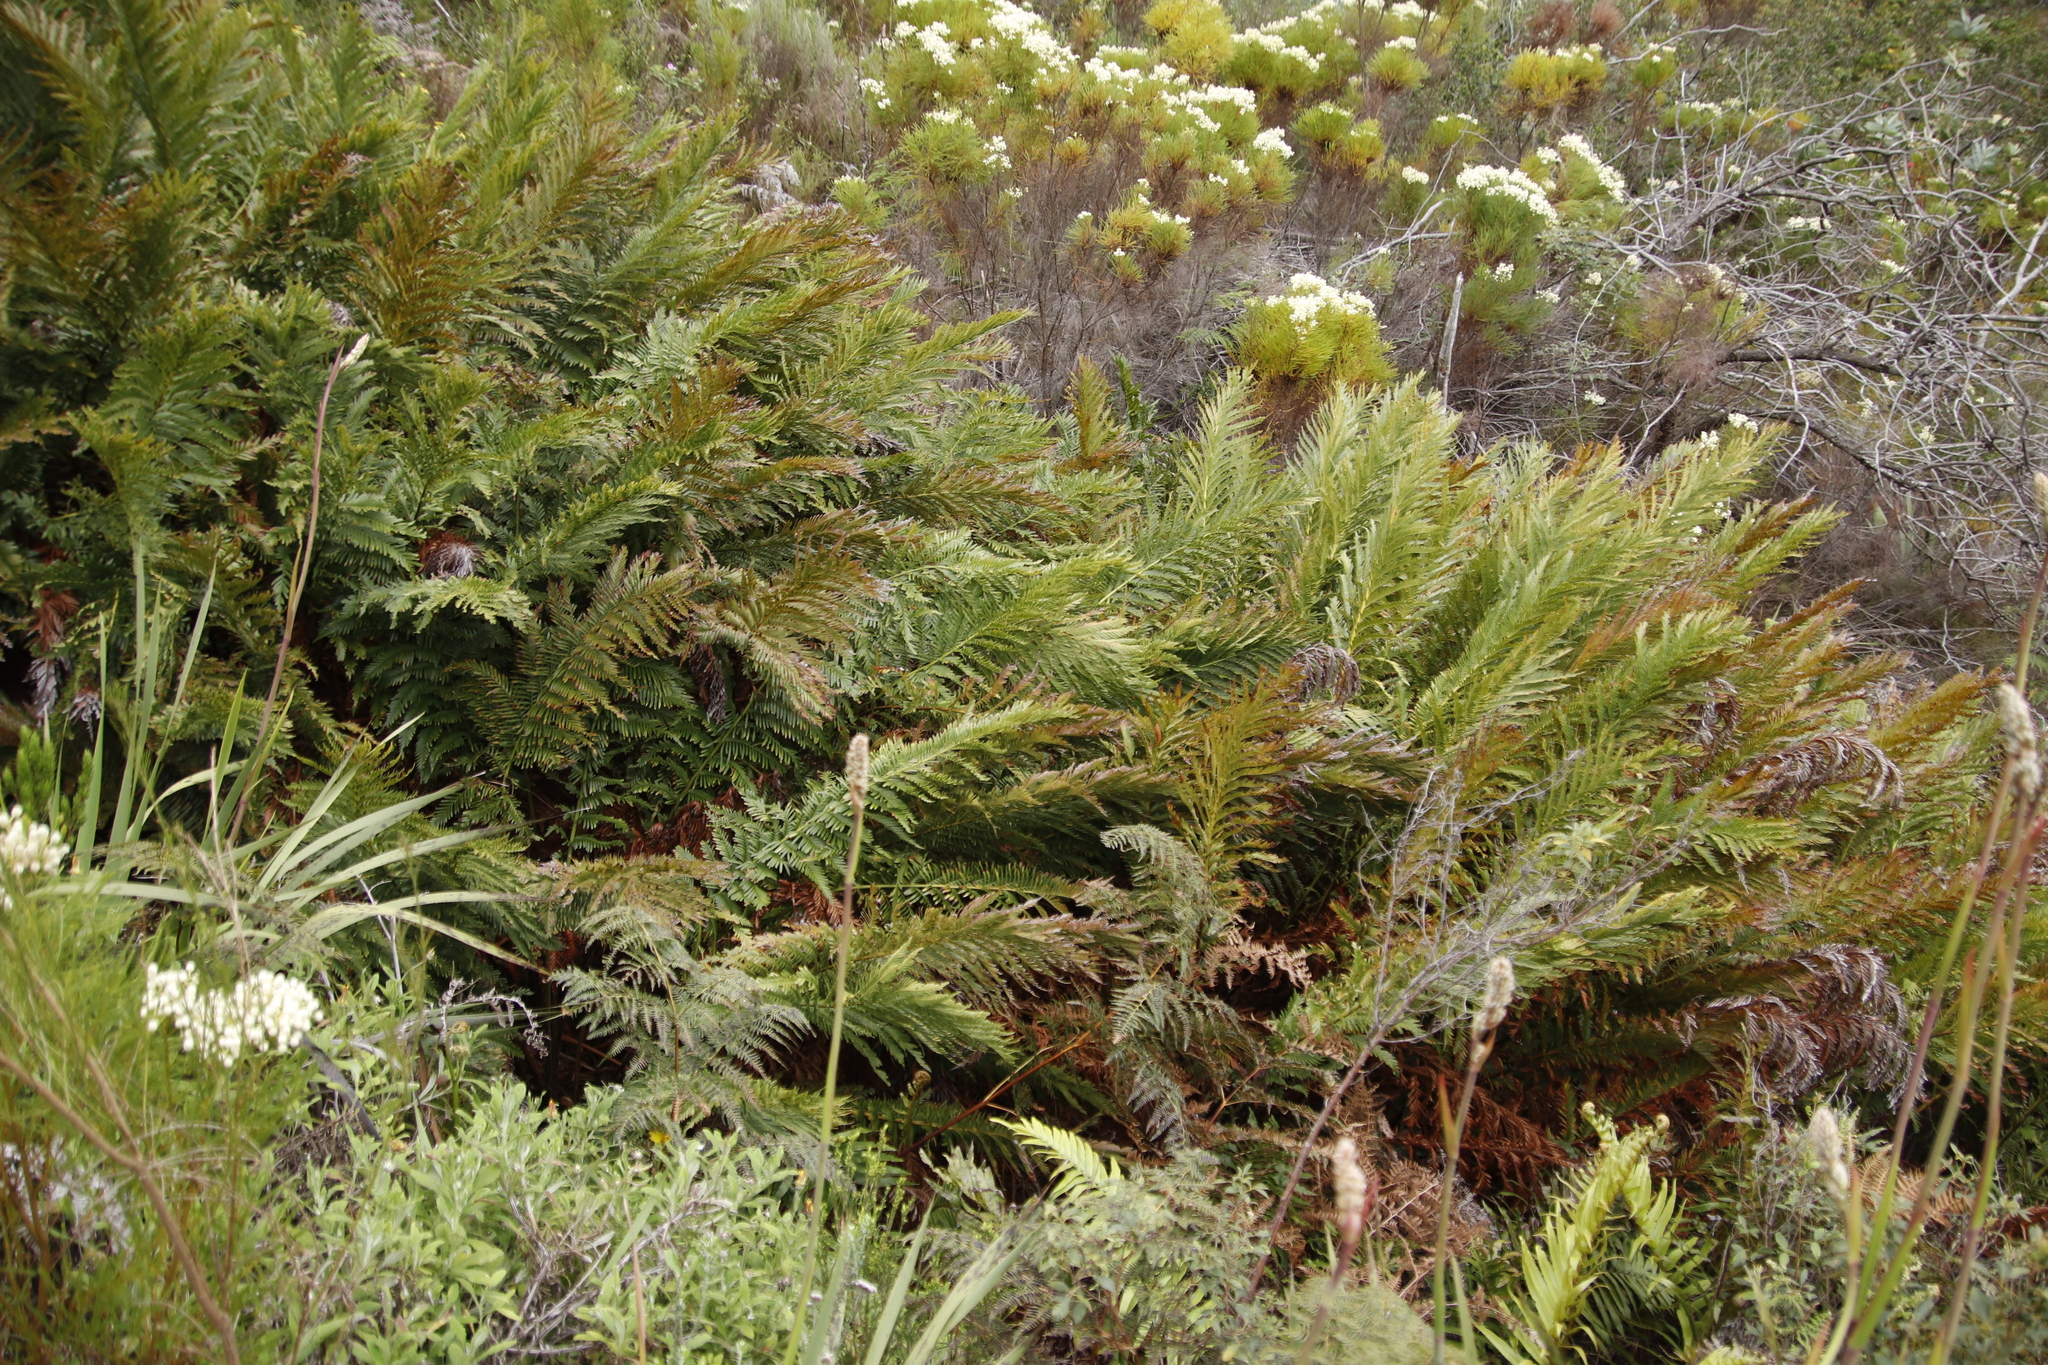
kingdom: Plantae
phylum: Tracheophyta
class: Polypodiopsida
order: Osmundales
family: Osmundaceae
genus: Todea
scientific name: Todea barbara
